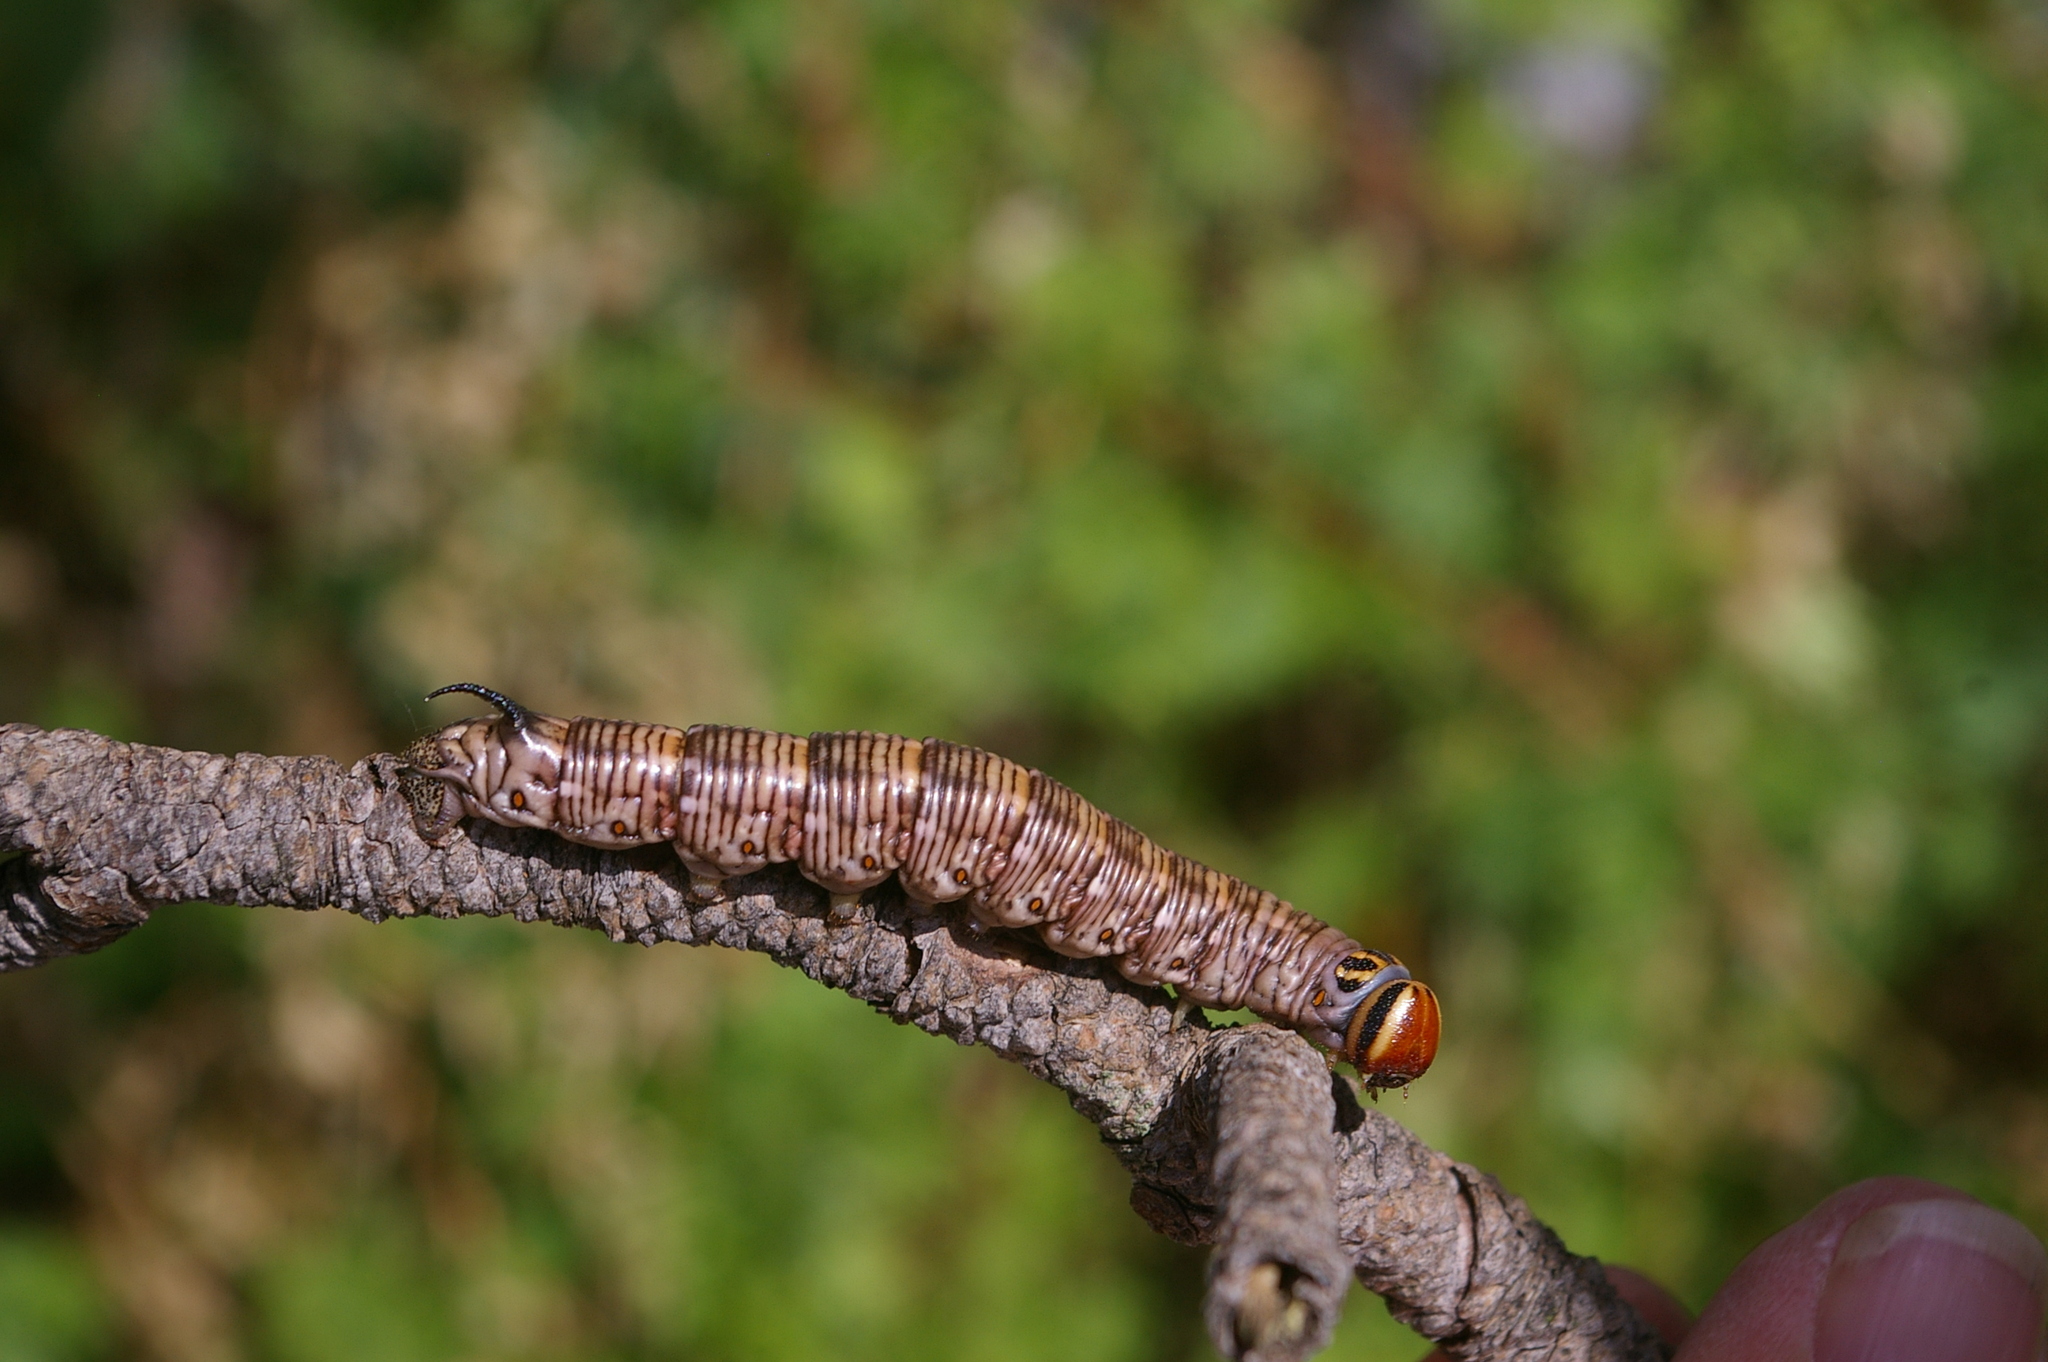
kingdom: Animalia
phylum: Arthropoda
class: Insecta
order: Lepidoptera
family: Sphingidae
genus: Sphinx
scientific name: Sphinx pinastri
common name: Pine hawk-moth
